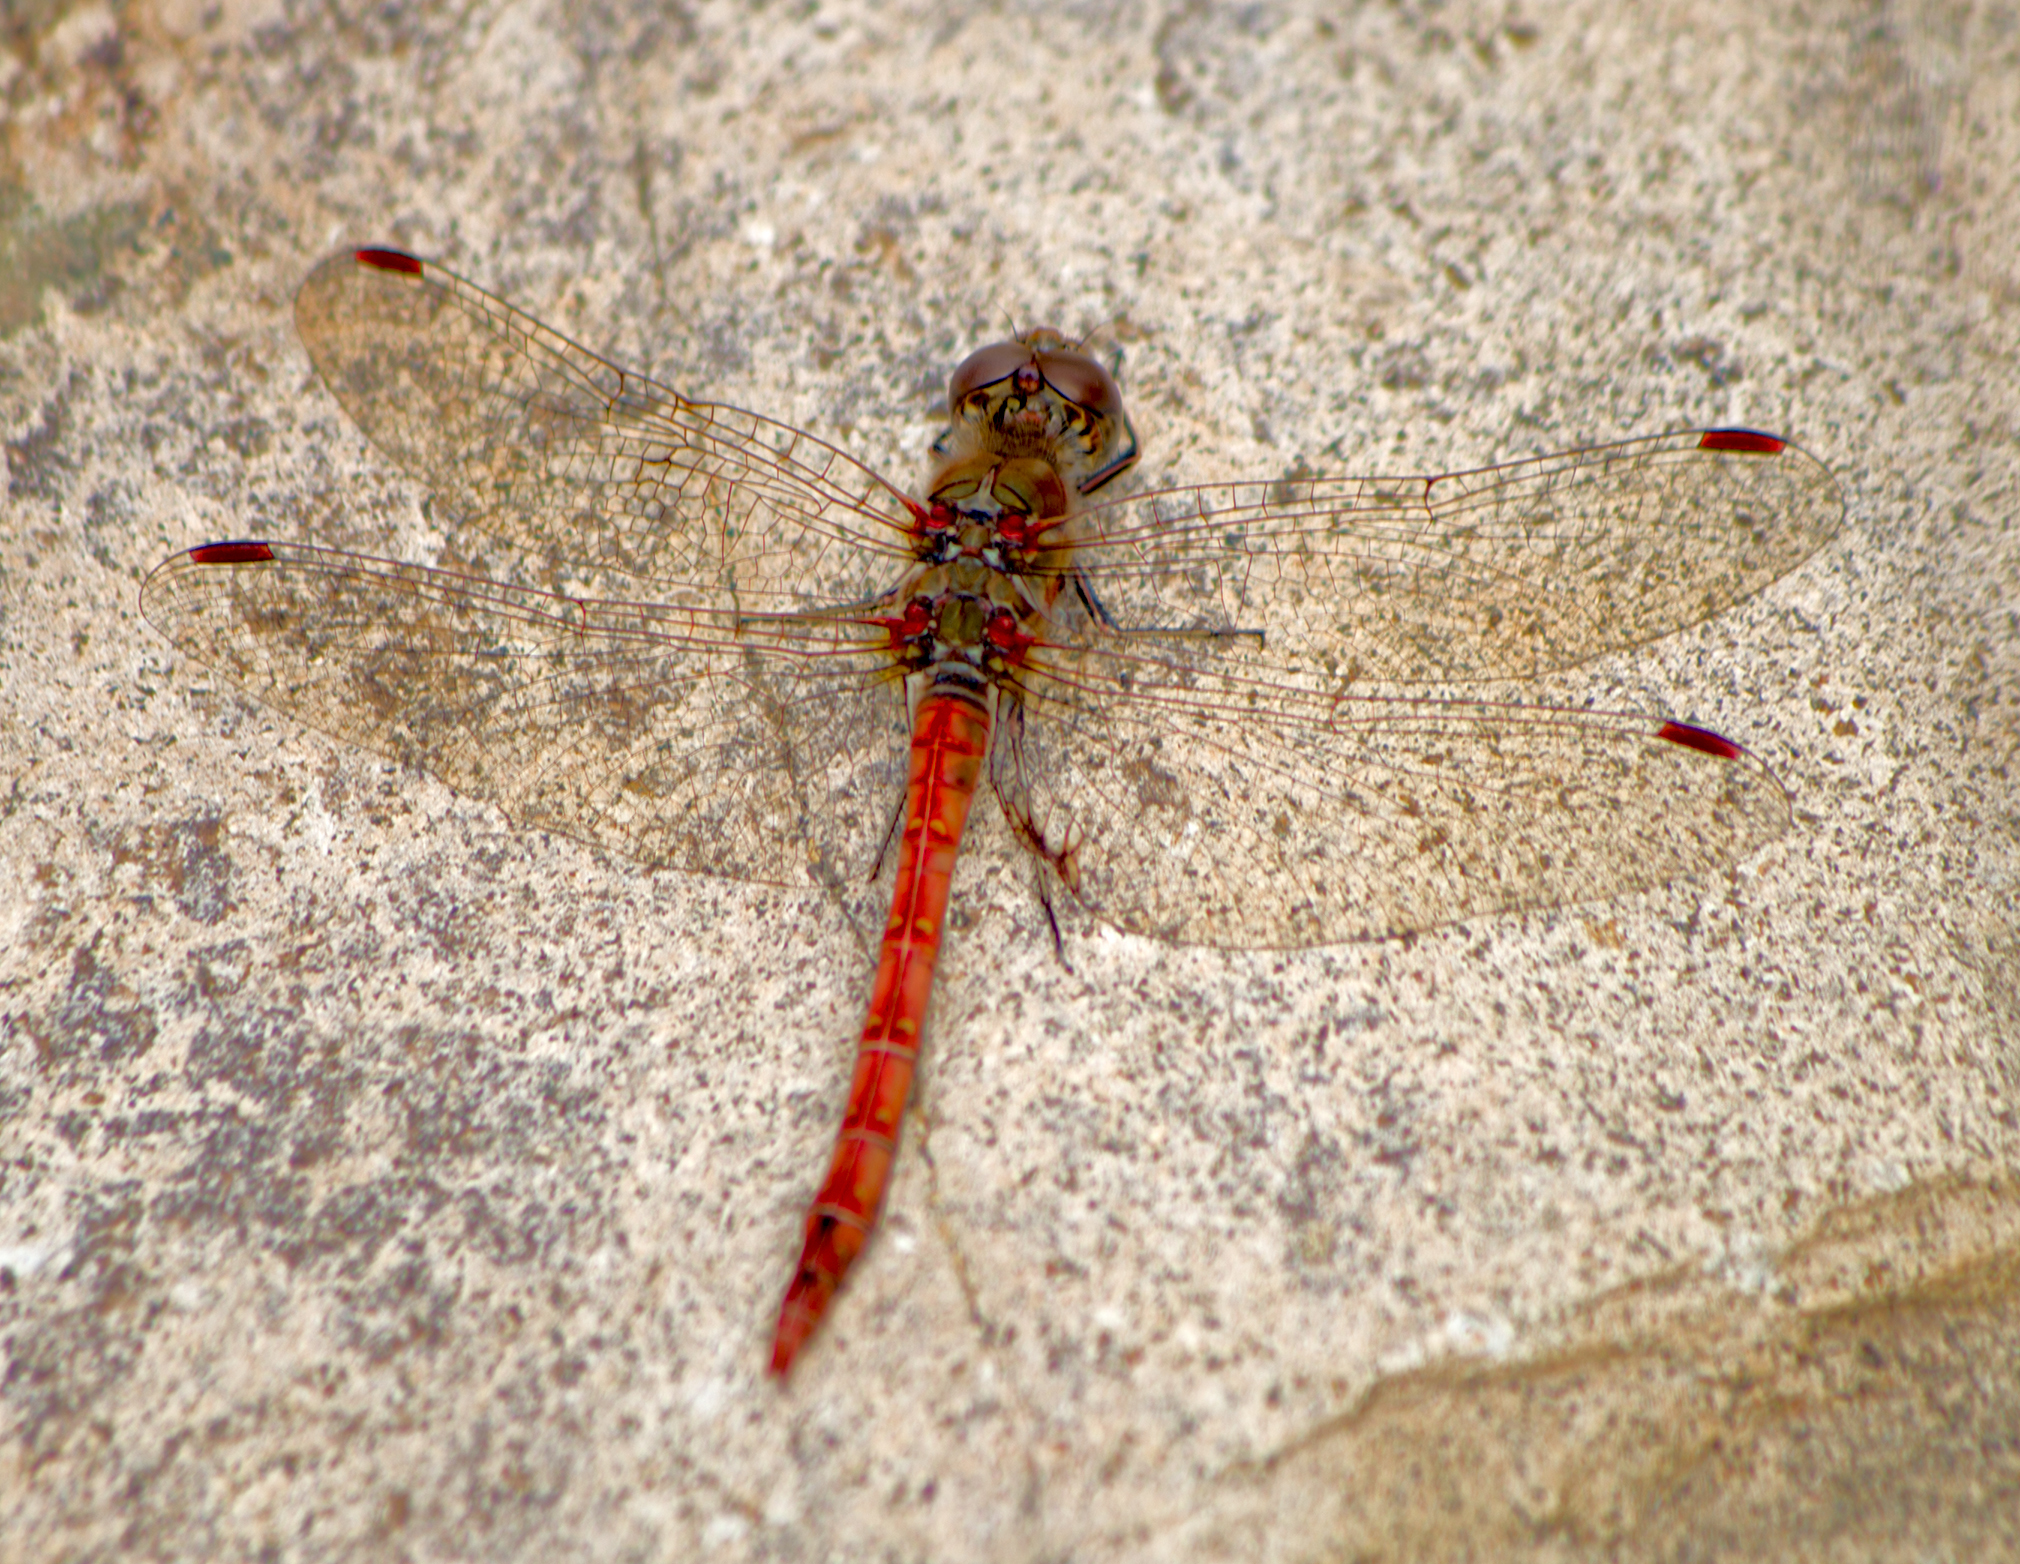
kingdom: Animalia
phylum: Arthropoda
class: Insecta
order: Odonata
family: Libellulidae
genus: Sympetrum
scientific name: Sympetrum striolatum
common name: Common darter
